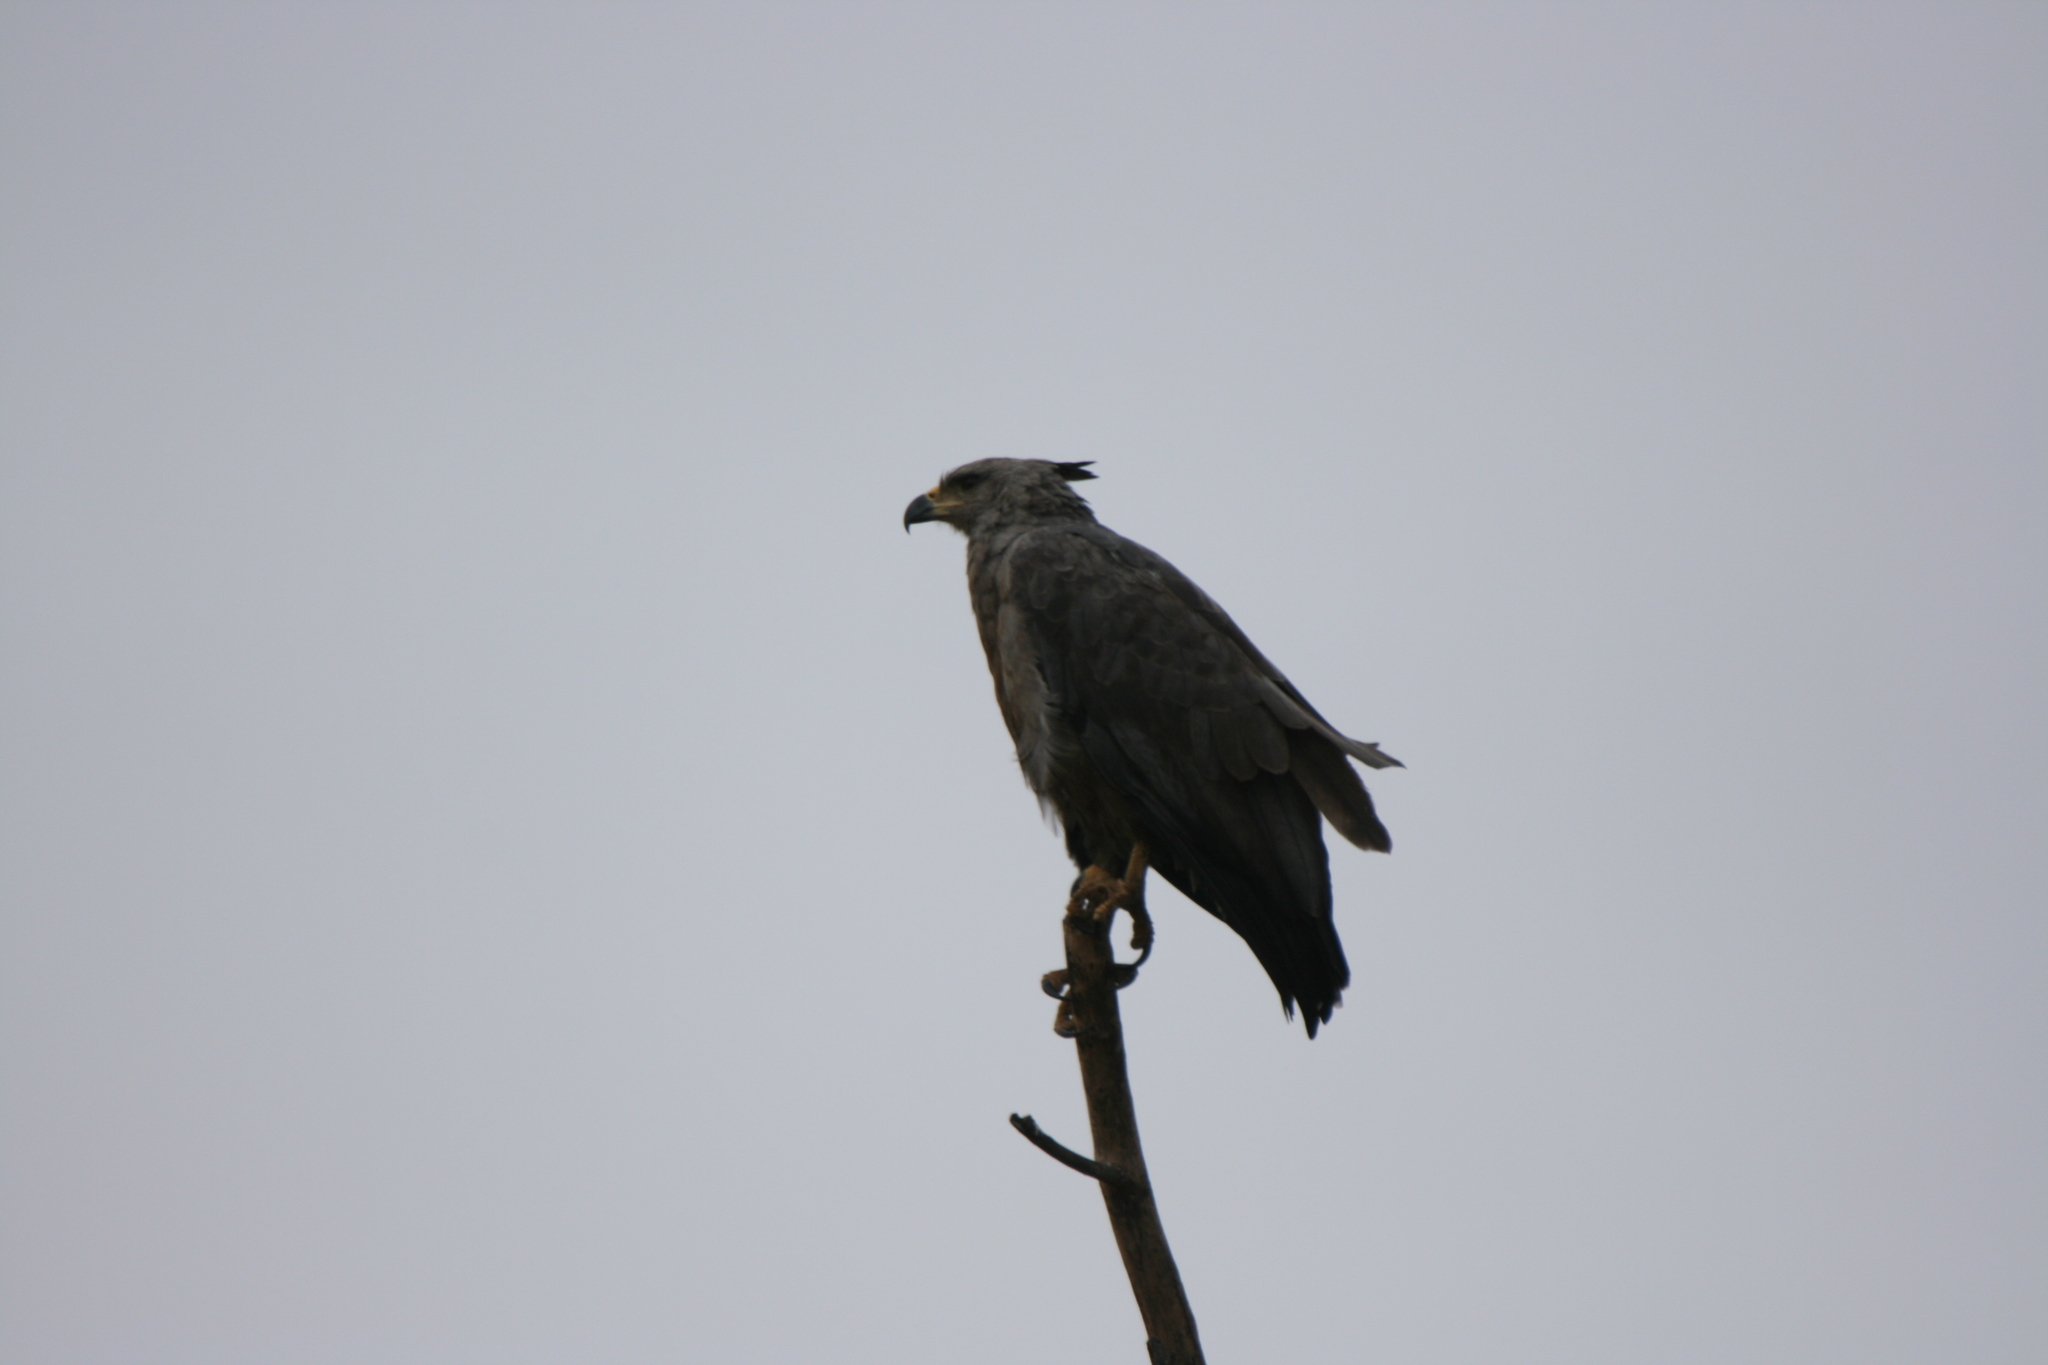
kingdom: Animalia
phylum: Chordata
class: Aves
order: Accipitriformes
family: Accipitridae
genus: Harpyhaliaetus
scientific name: Harpyhaliaetus coronatus
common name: Crowned solitary eagle
